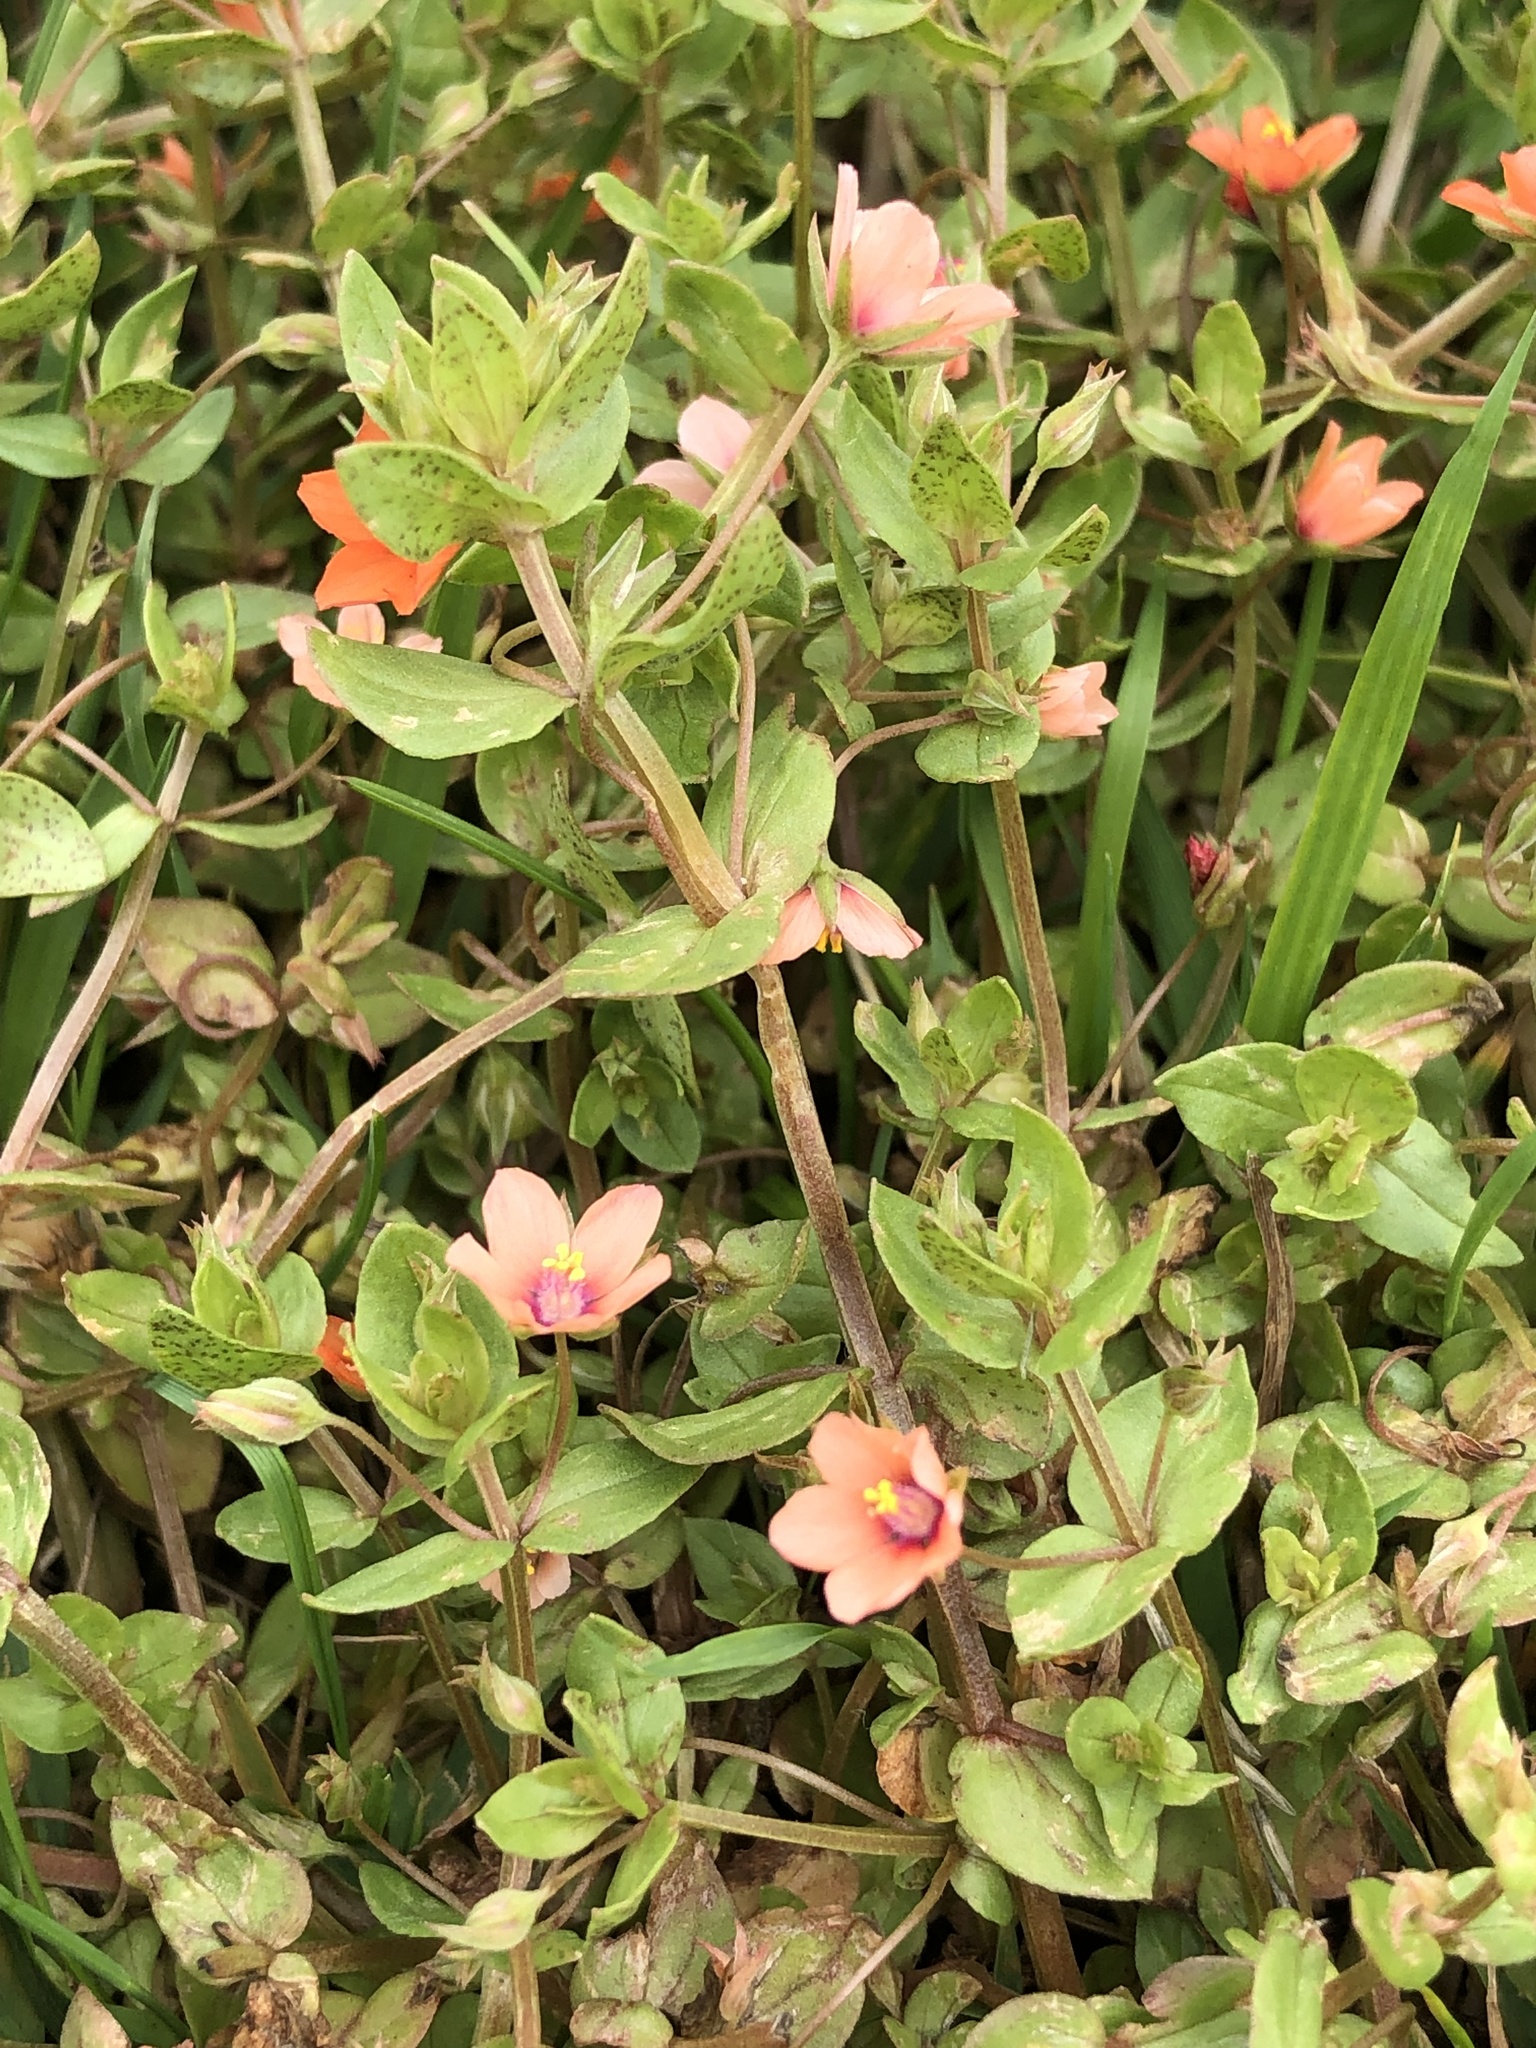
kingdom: Plantae
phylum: Tracheophyta
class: Magnoliopsida
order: Ericales
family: Primulaceae
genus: Lysimachia
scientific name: Lysimachia arvensis
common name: Scarlet pimpernel
